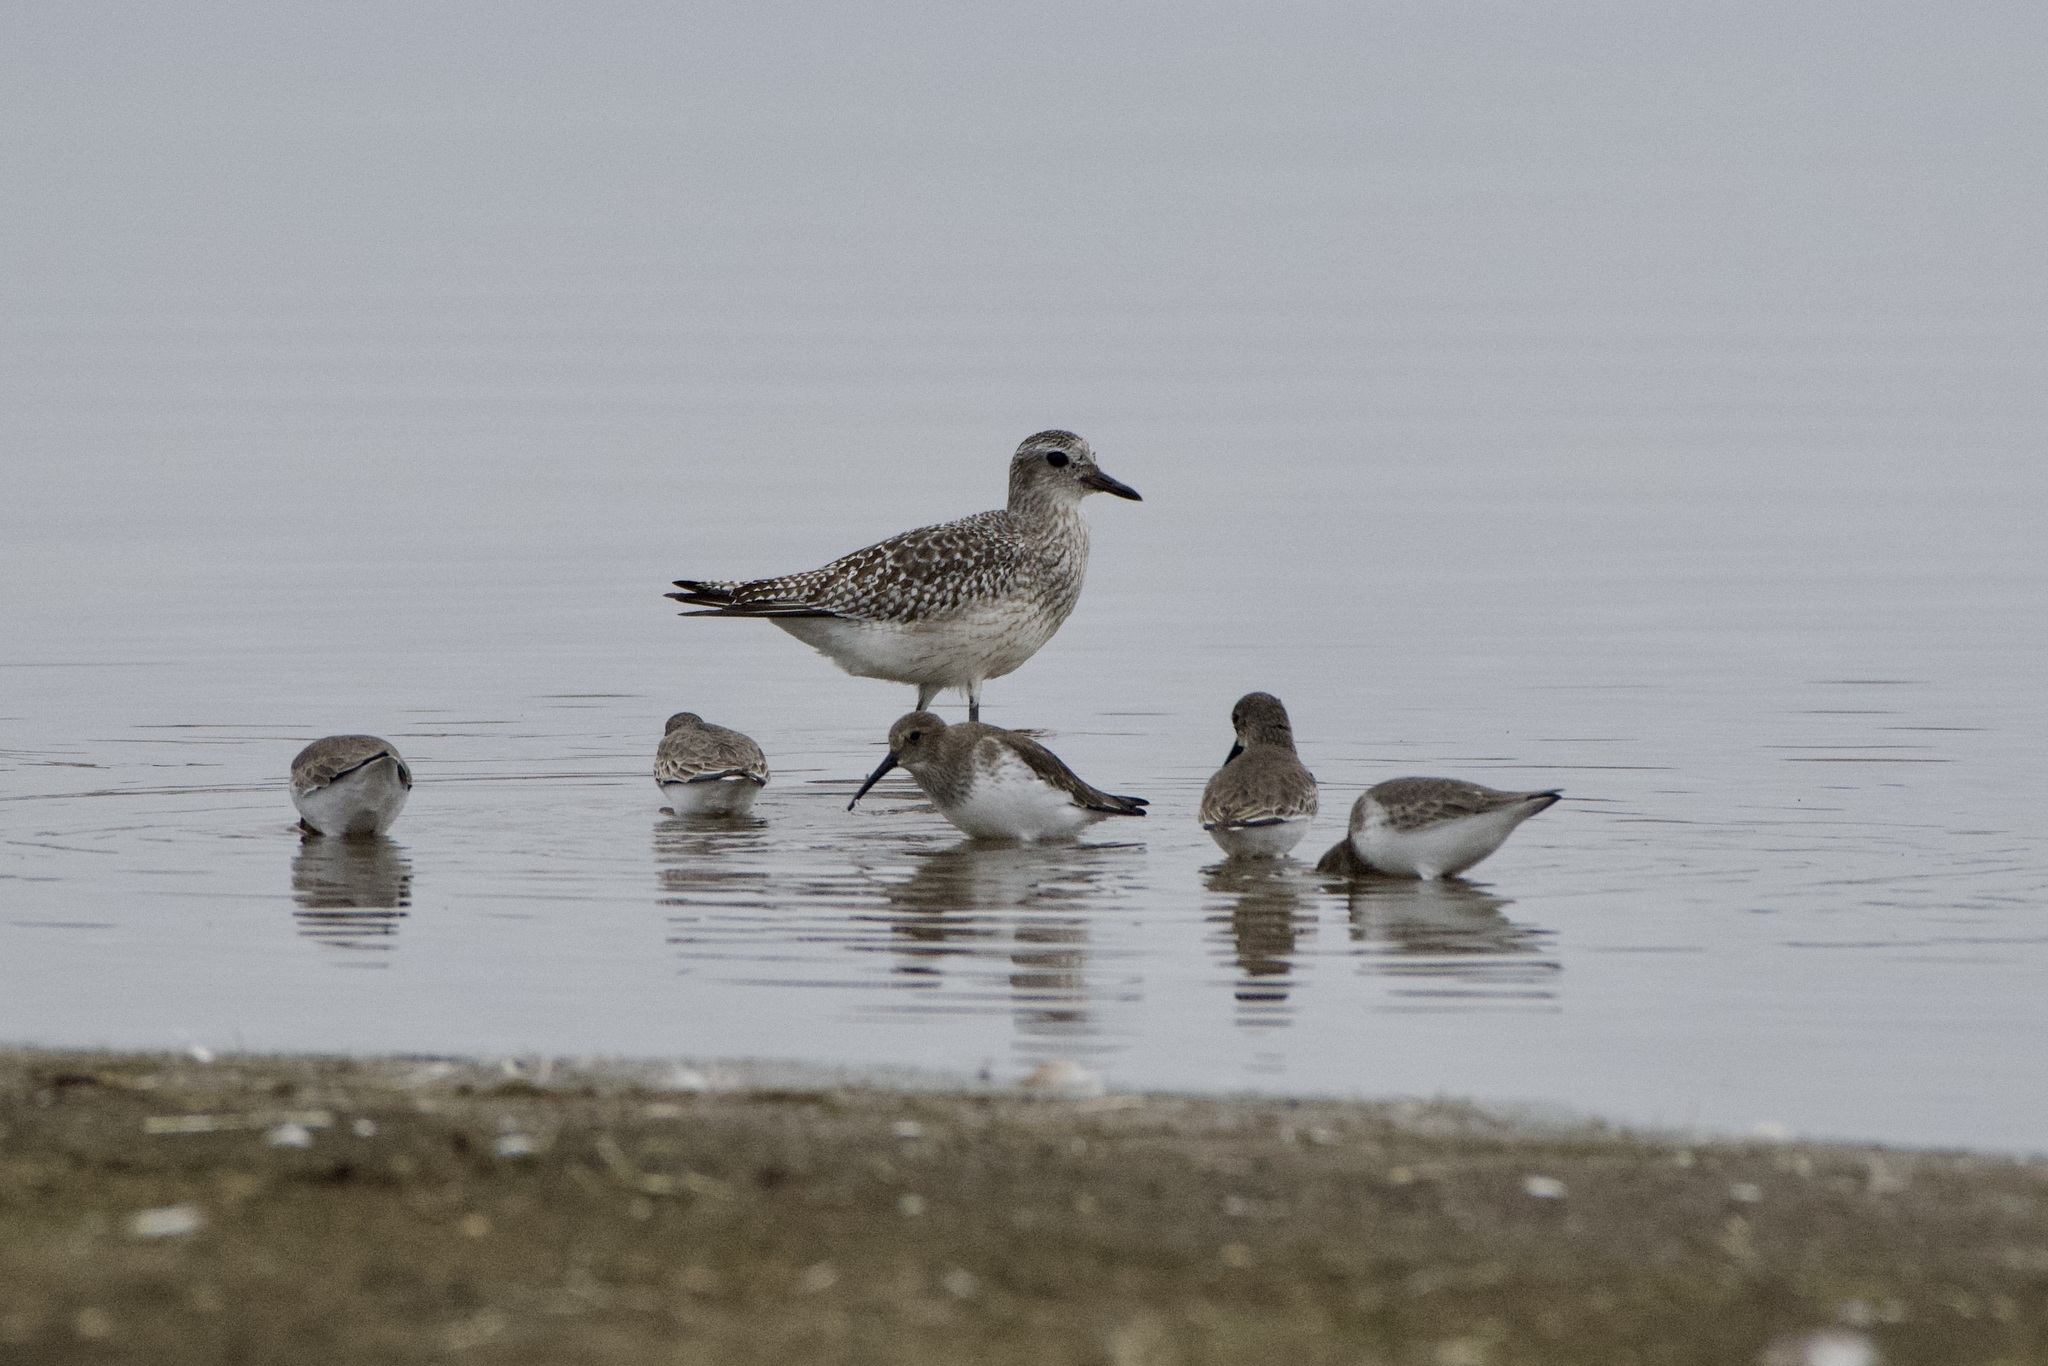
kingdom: Animalia
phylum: Chordata
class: Aves
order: Charadriiformes
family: Charadriidae
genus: Pluvialis
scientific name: Pluvialis squatarola
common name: Grey plover
